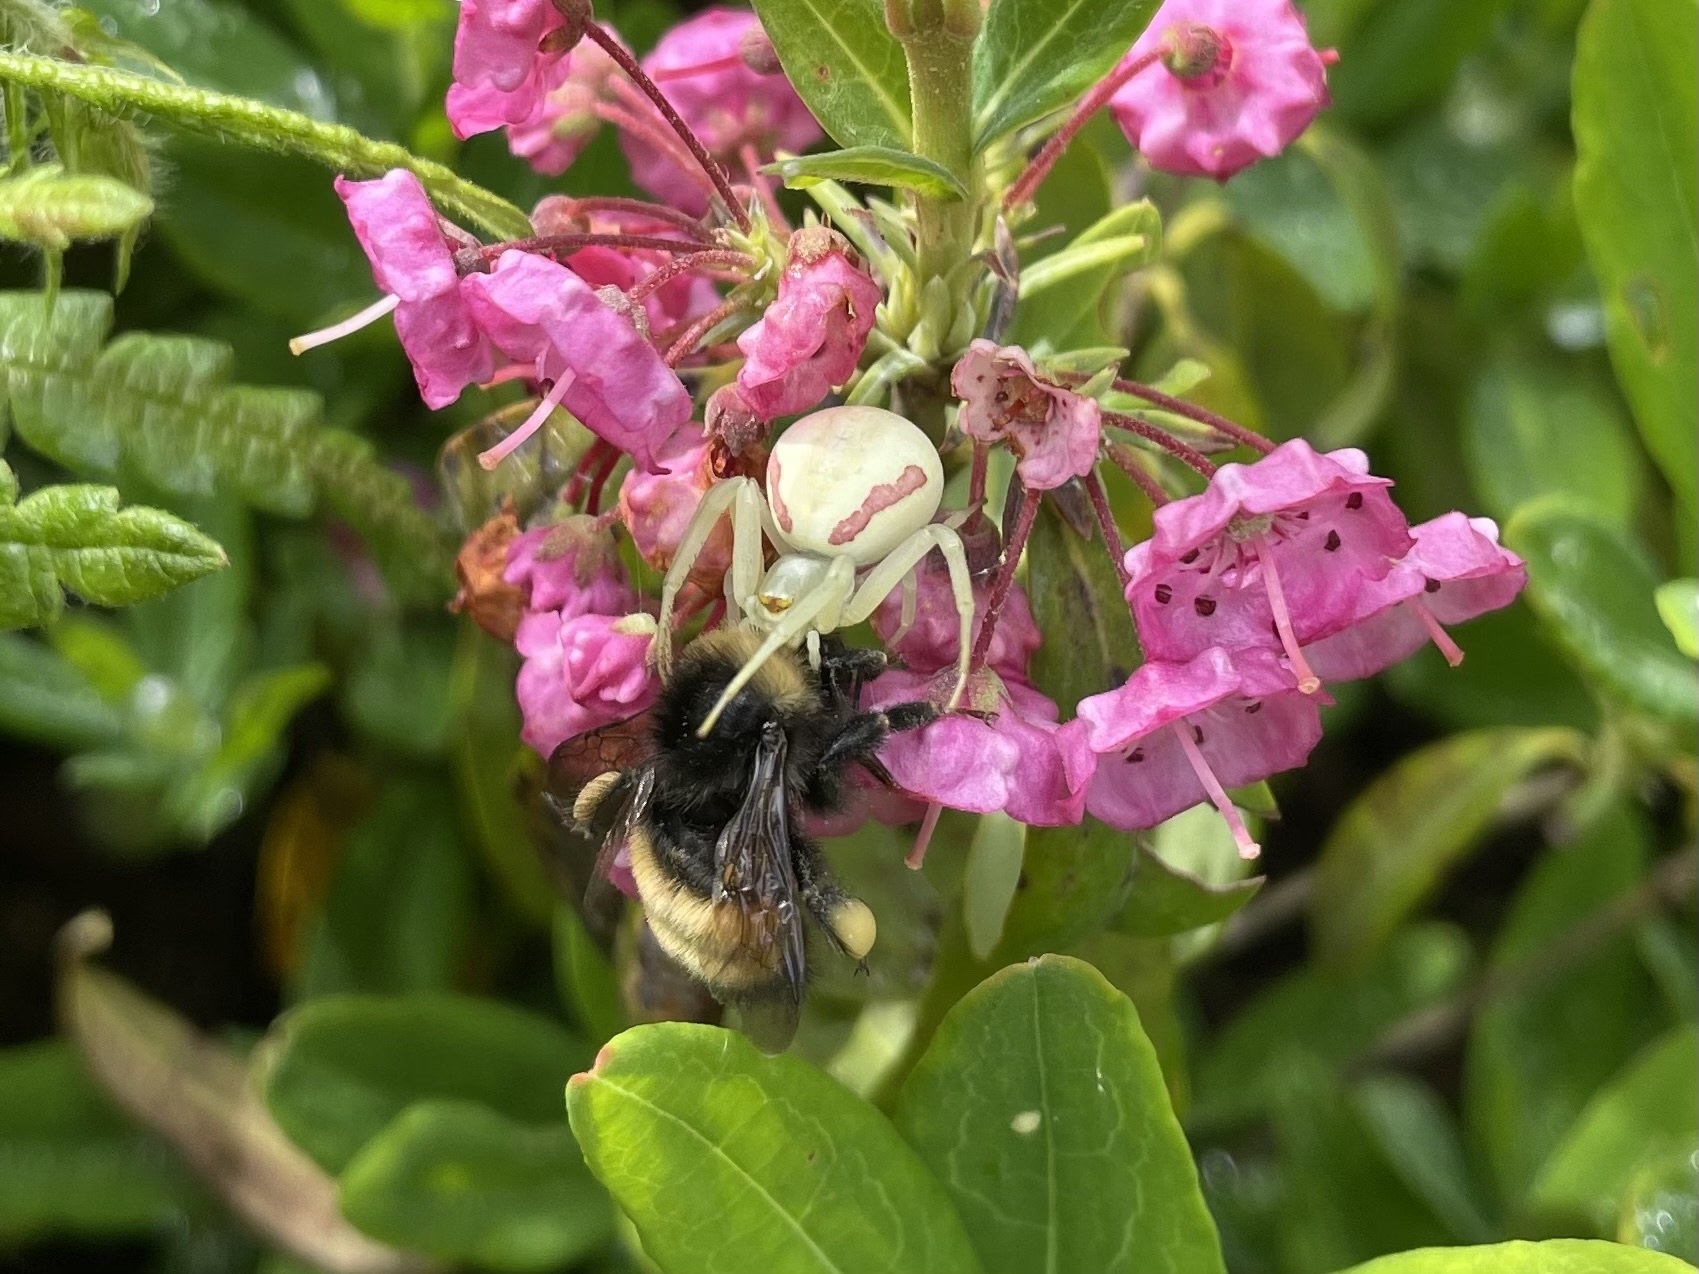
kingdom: Animalia
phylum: Arthropoda
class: Arachnida
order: Araneae
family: Thomisidae
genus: Misumena
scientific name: Misumena vatia
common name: Goldenrod crab spider
